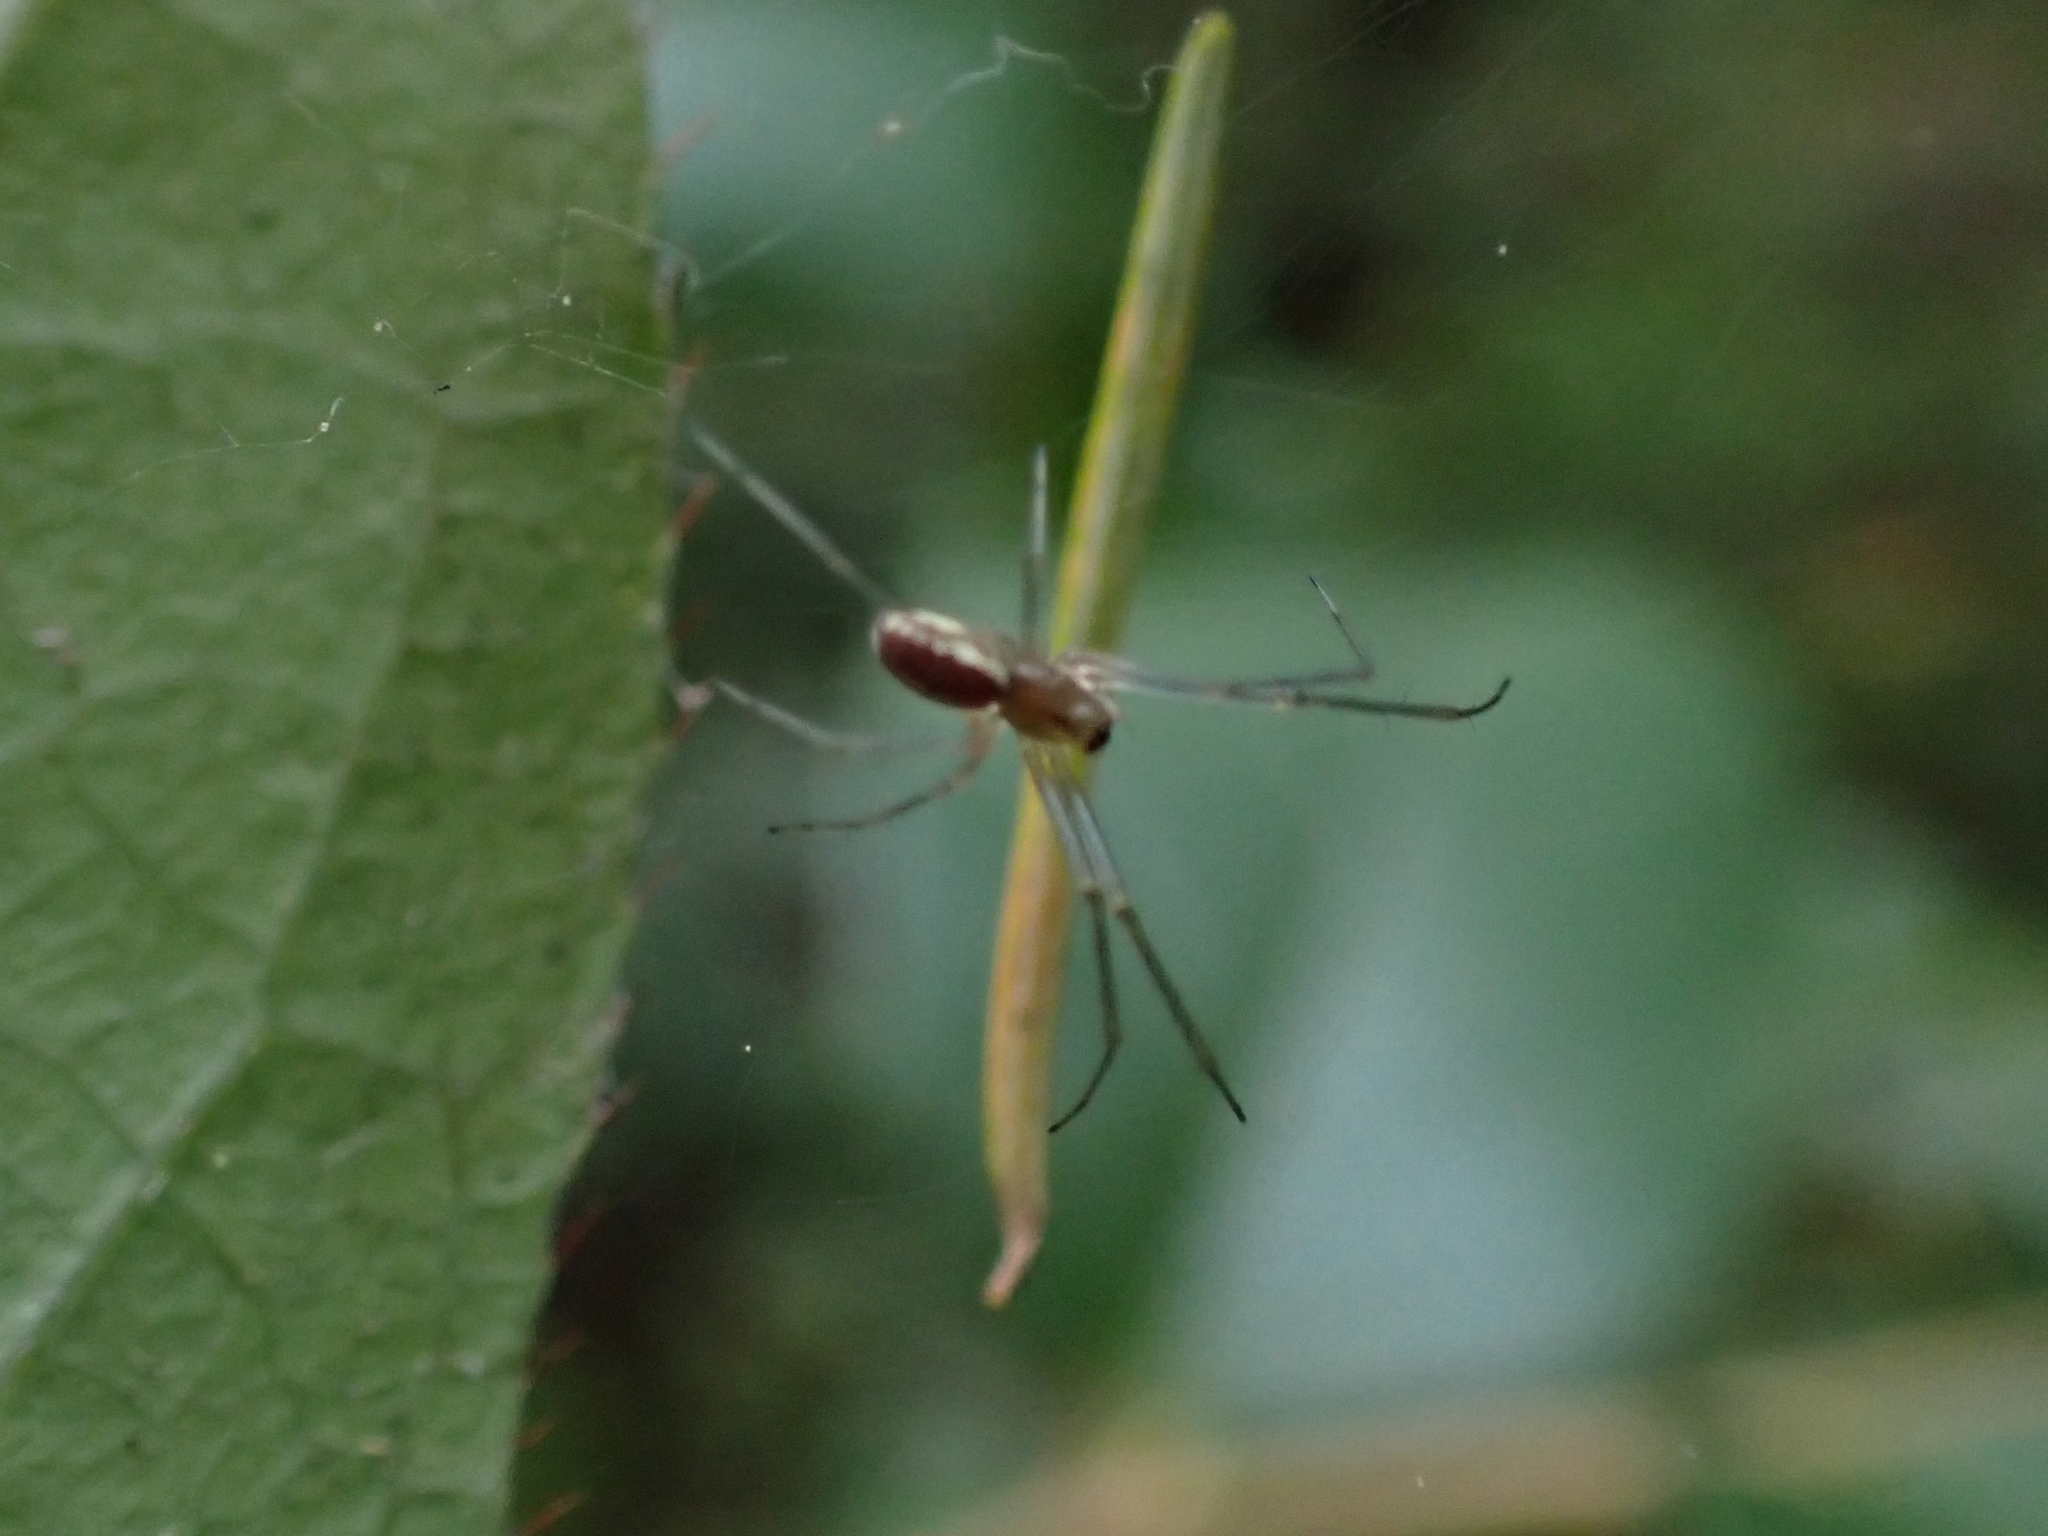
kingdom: Animalia
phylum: Arthropoda
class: Arachnida
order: Araneae
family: Linyphiidae
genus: Microlinyphia
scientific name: Microlinyphia dana
